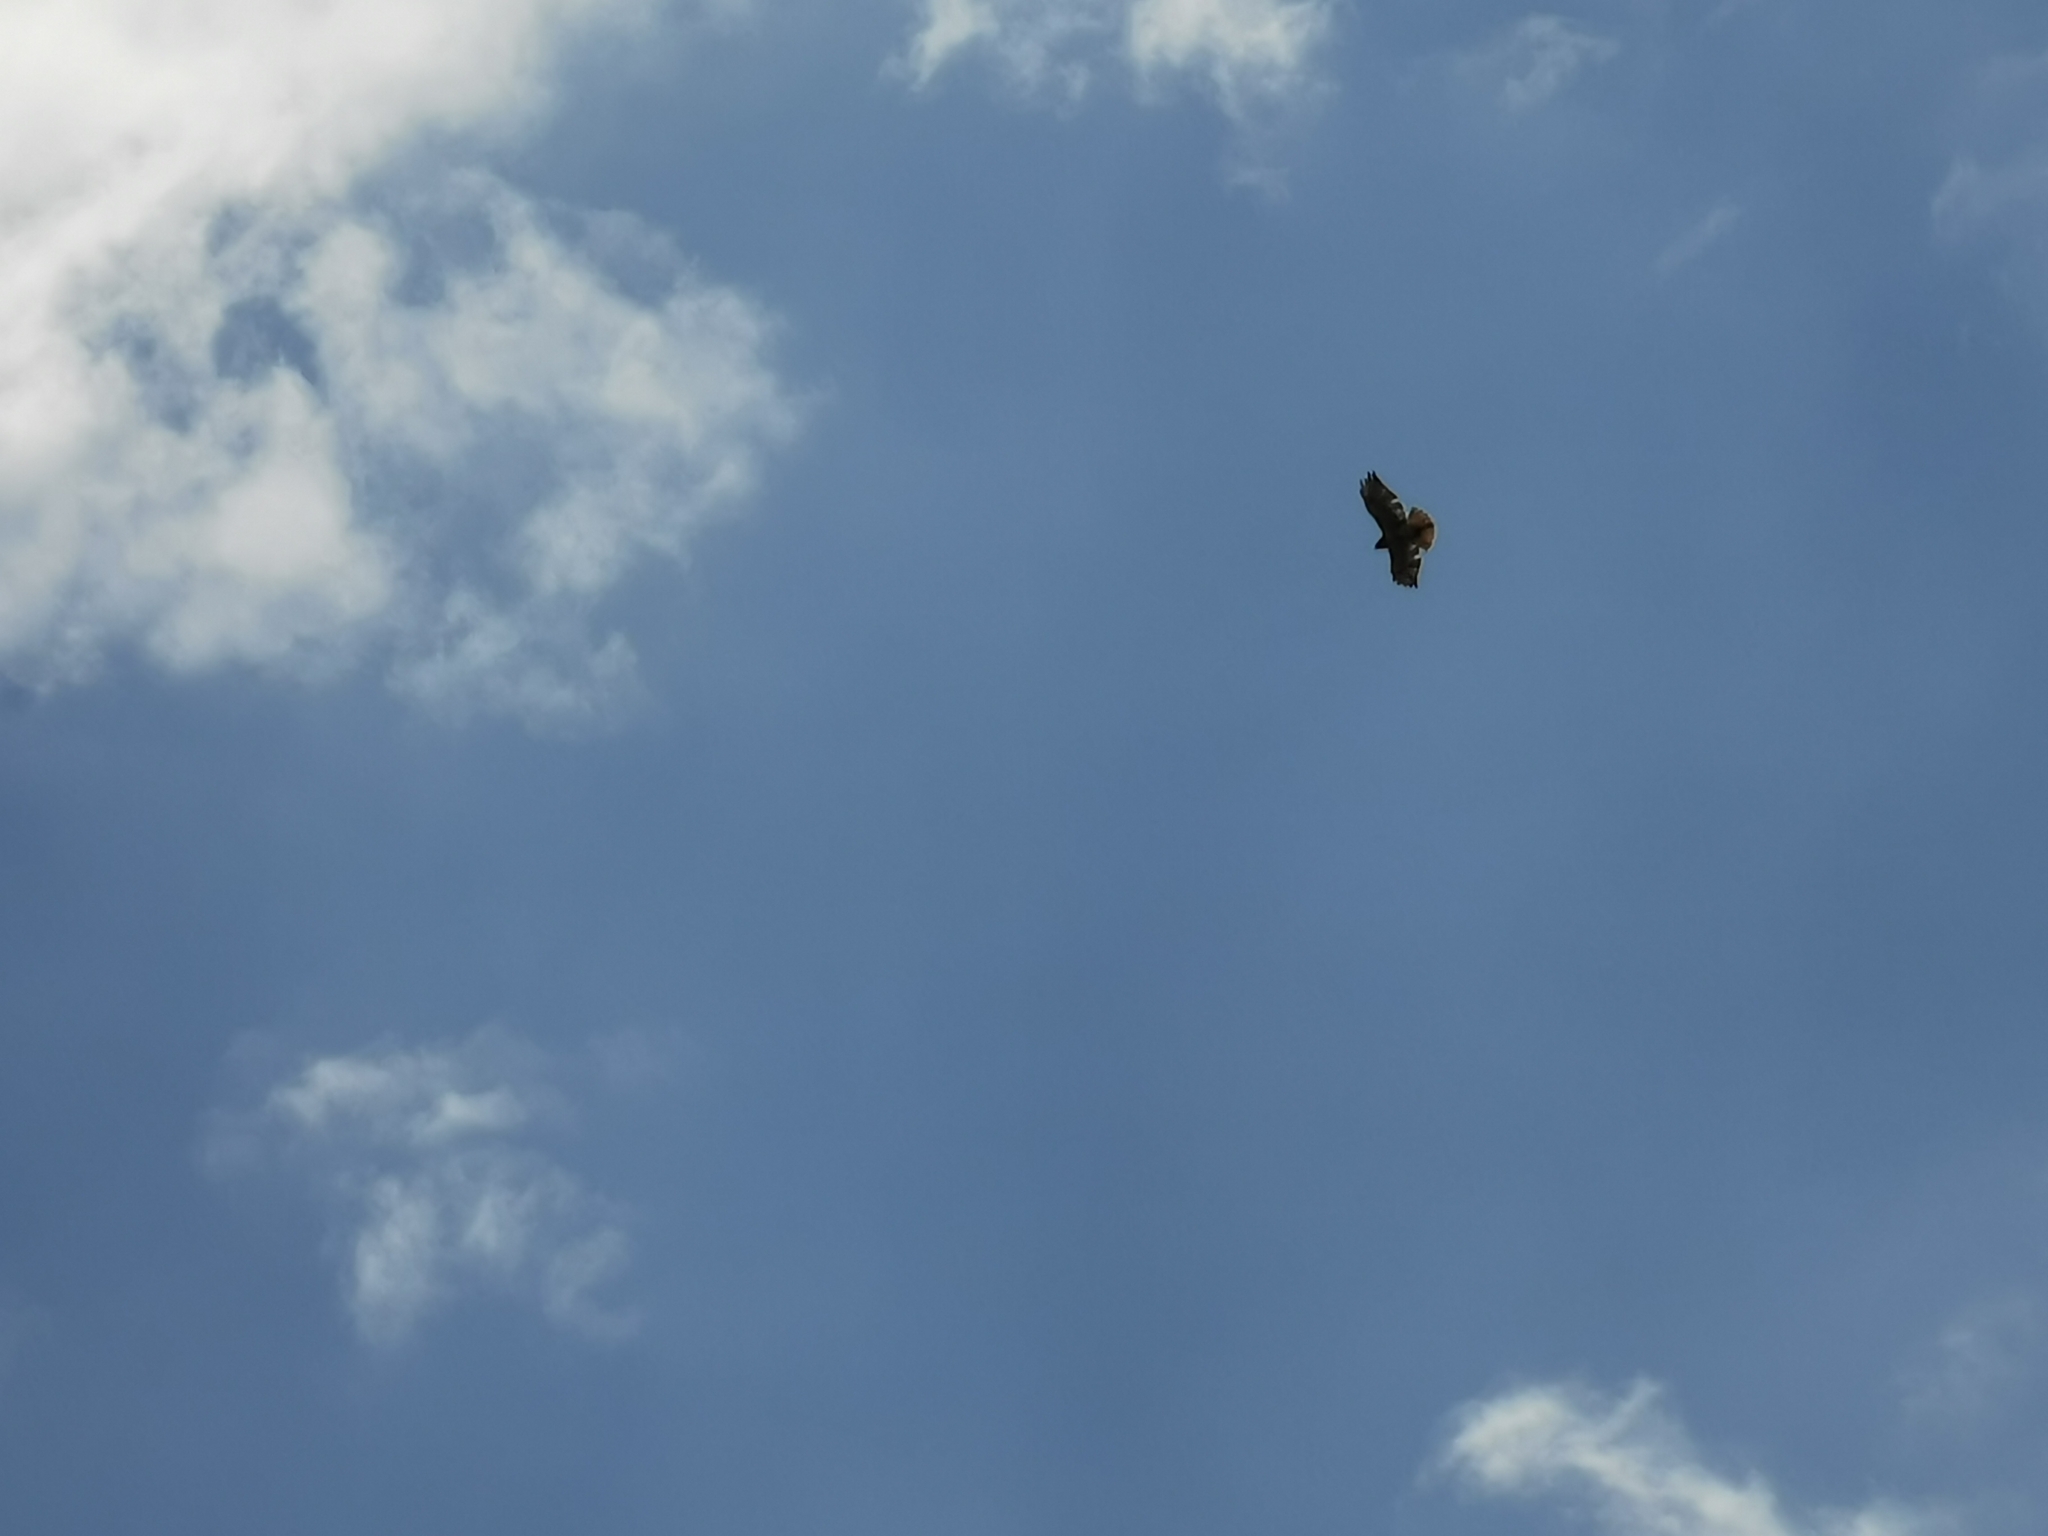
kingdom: Animalia
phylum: Chordata
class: Aves
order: Accipitriformes
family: Accipitridae
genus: Buteo
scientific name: Buteo jamaicensis
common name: Red-tailed hawk
